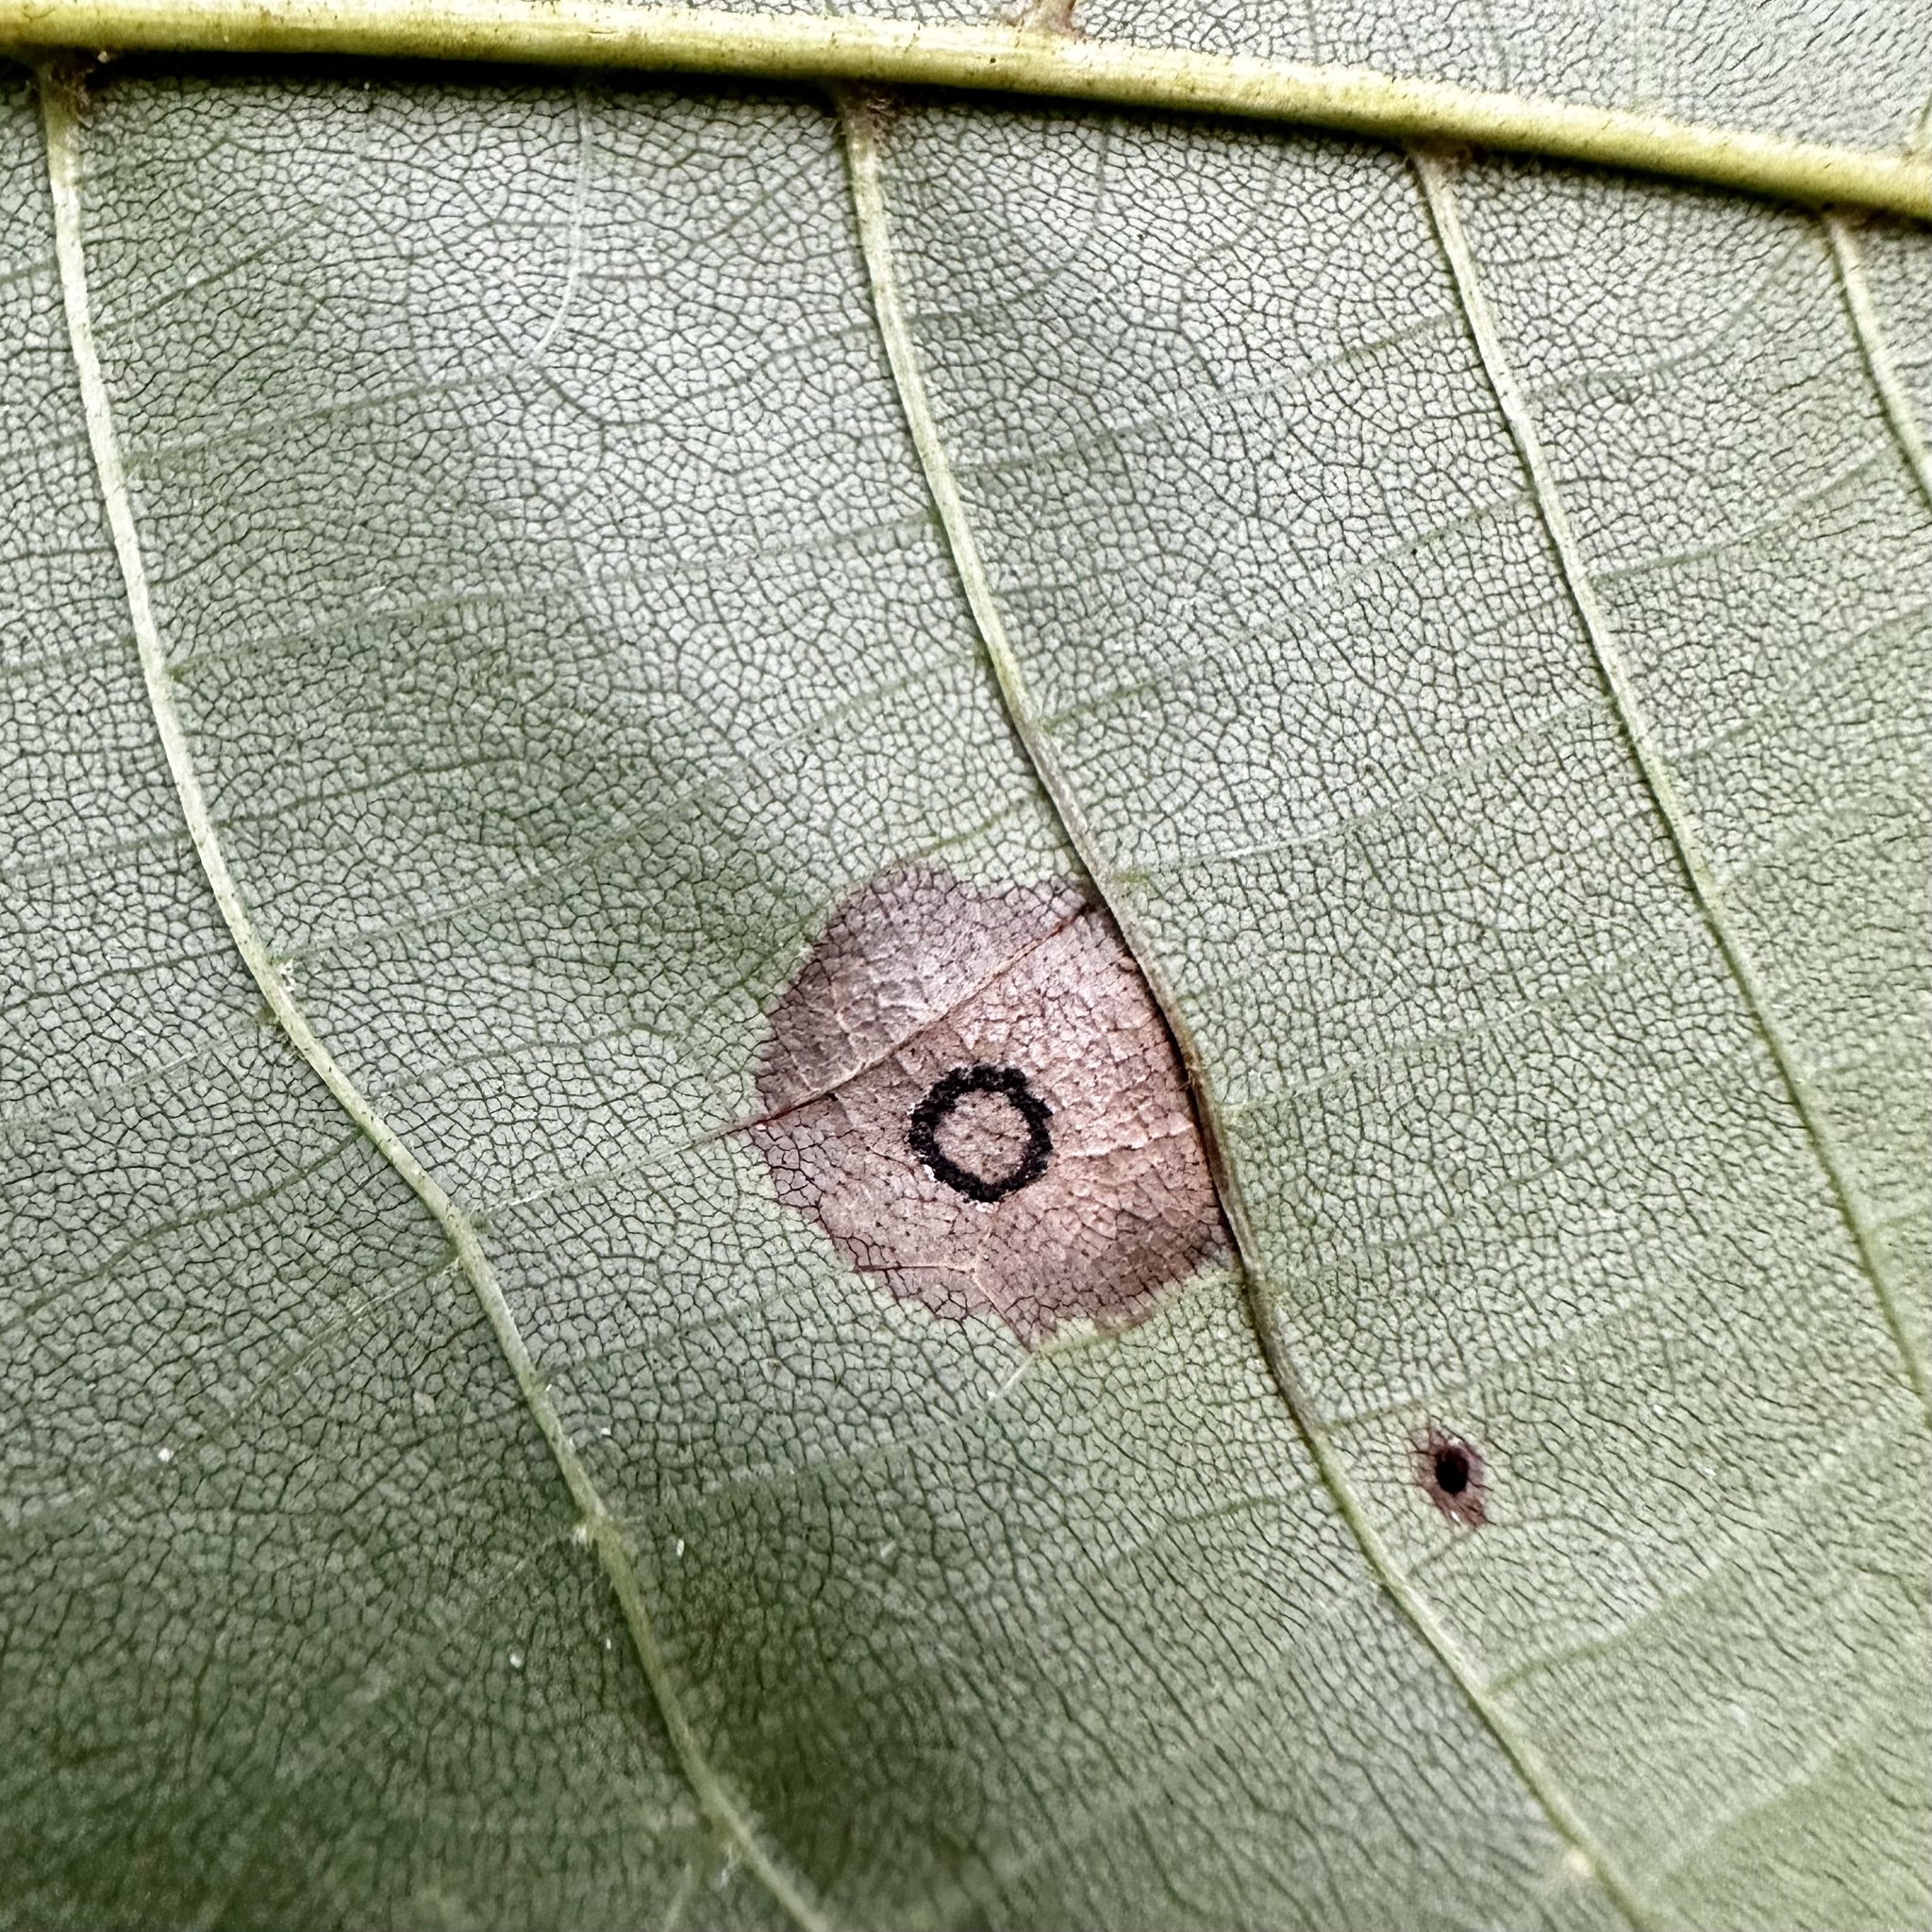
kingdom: Animalia
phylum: Arthropoda
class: Insecta
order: Diptera
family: Cecidomyiidae
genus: Gliaspilota
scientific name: Gliaspilota glutinosa
